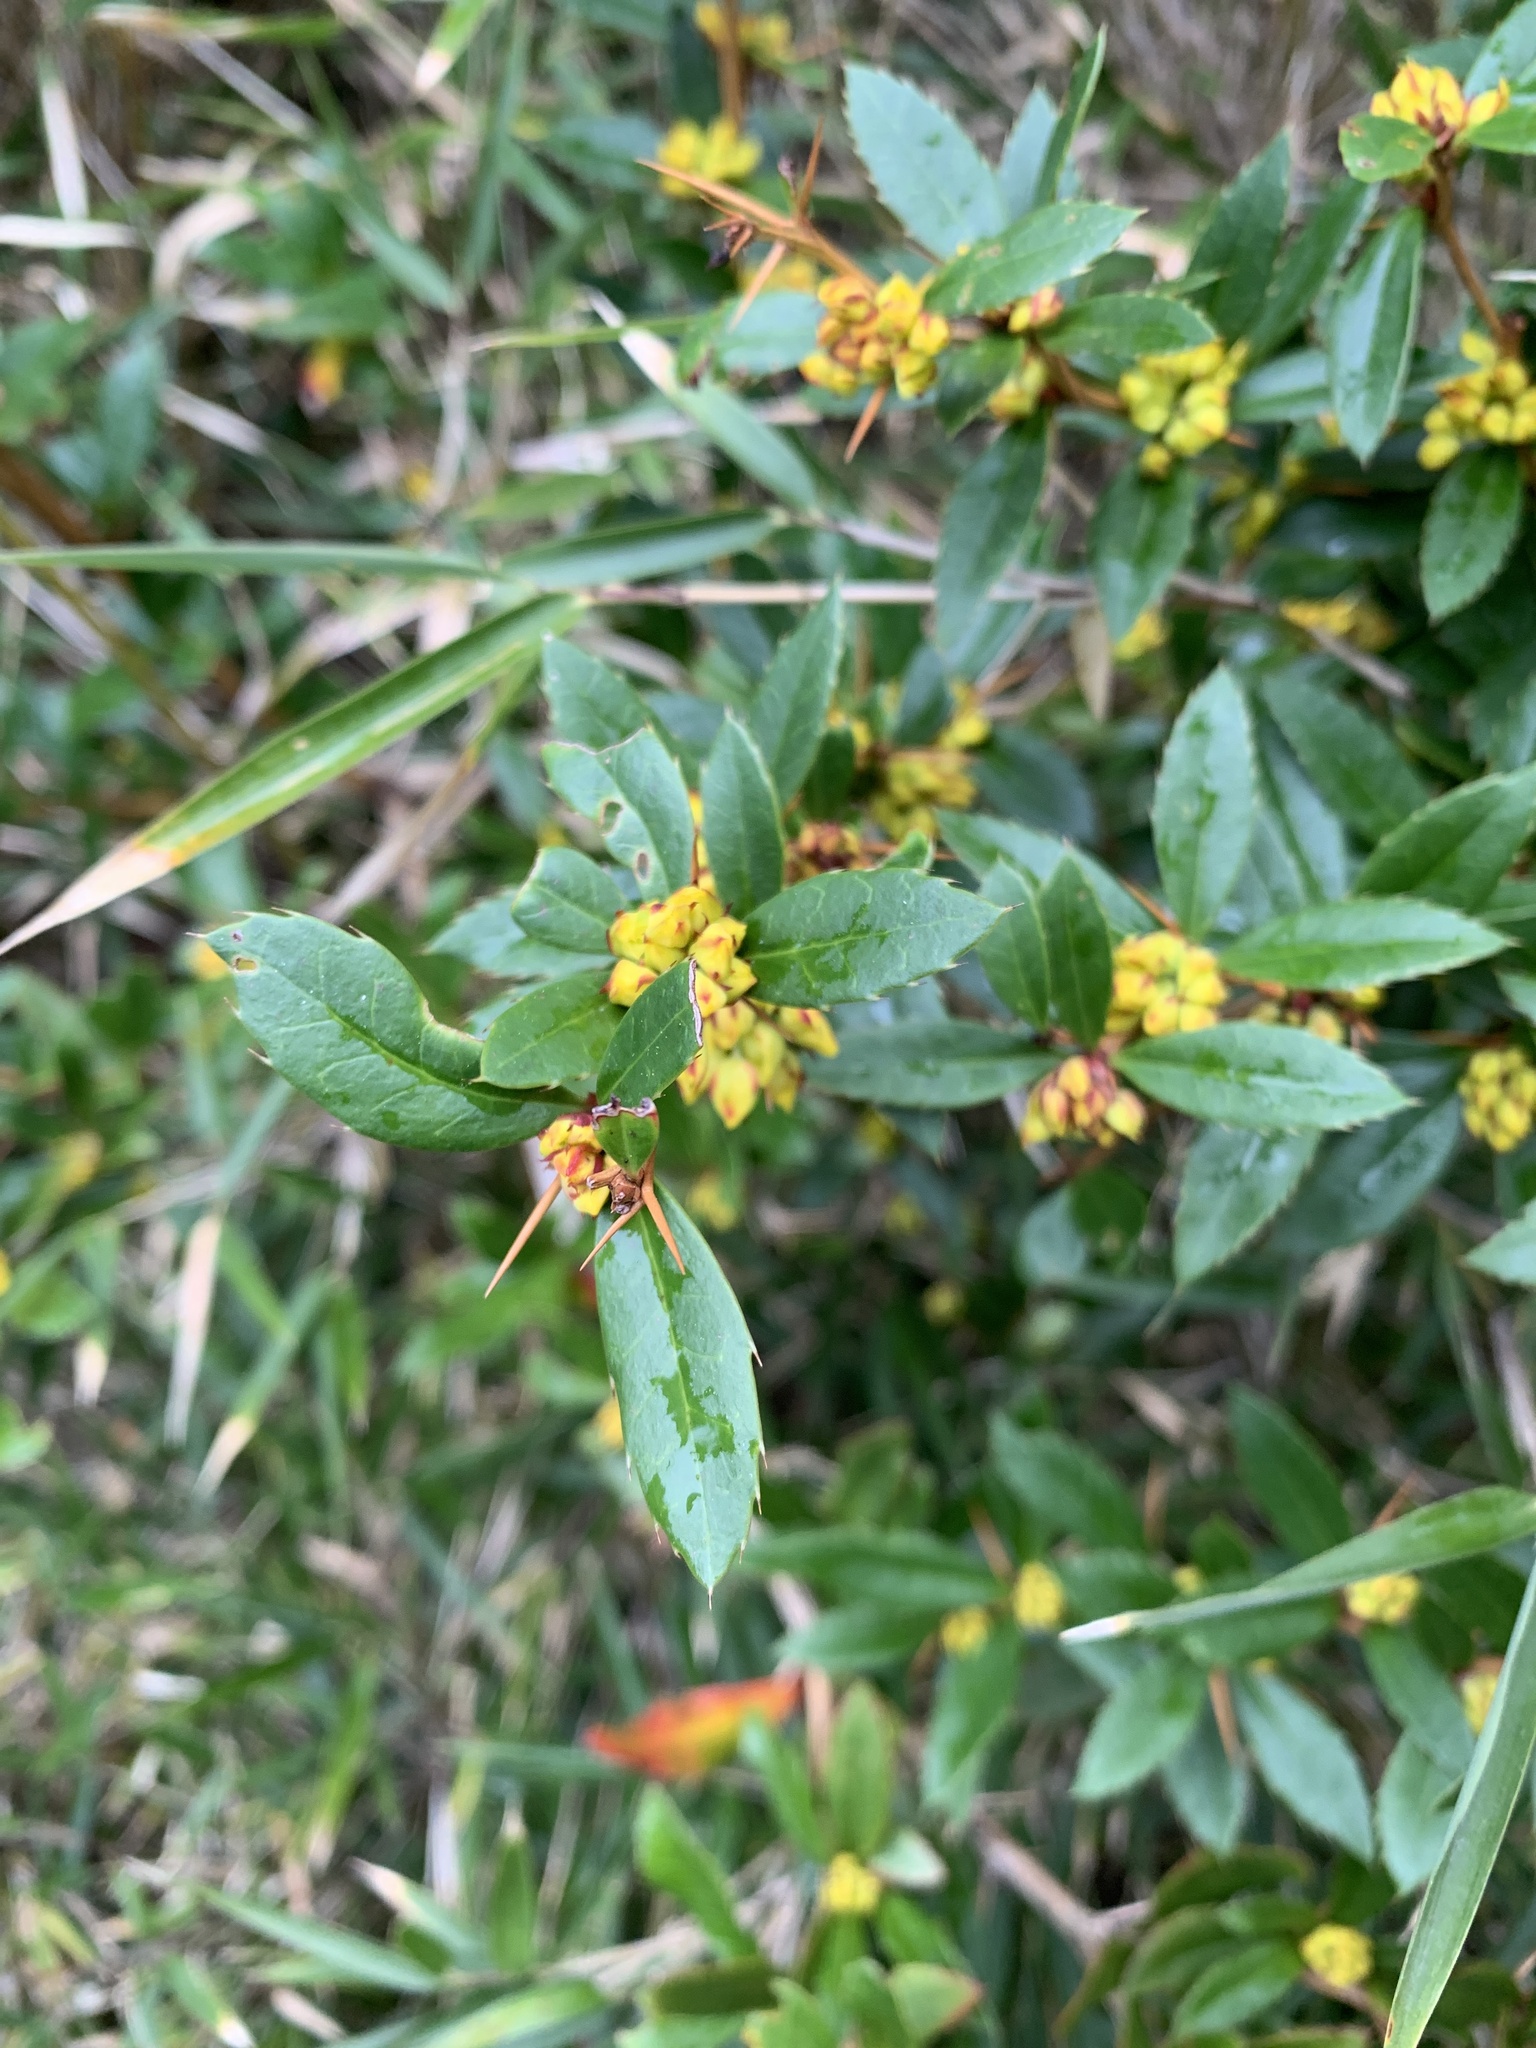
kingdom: Plantae
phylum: Tracheophyta
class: Magnoliopsida
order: Ranunculales
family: Berberidaceae
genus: Berberis
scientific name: Berberis kawakamii
